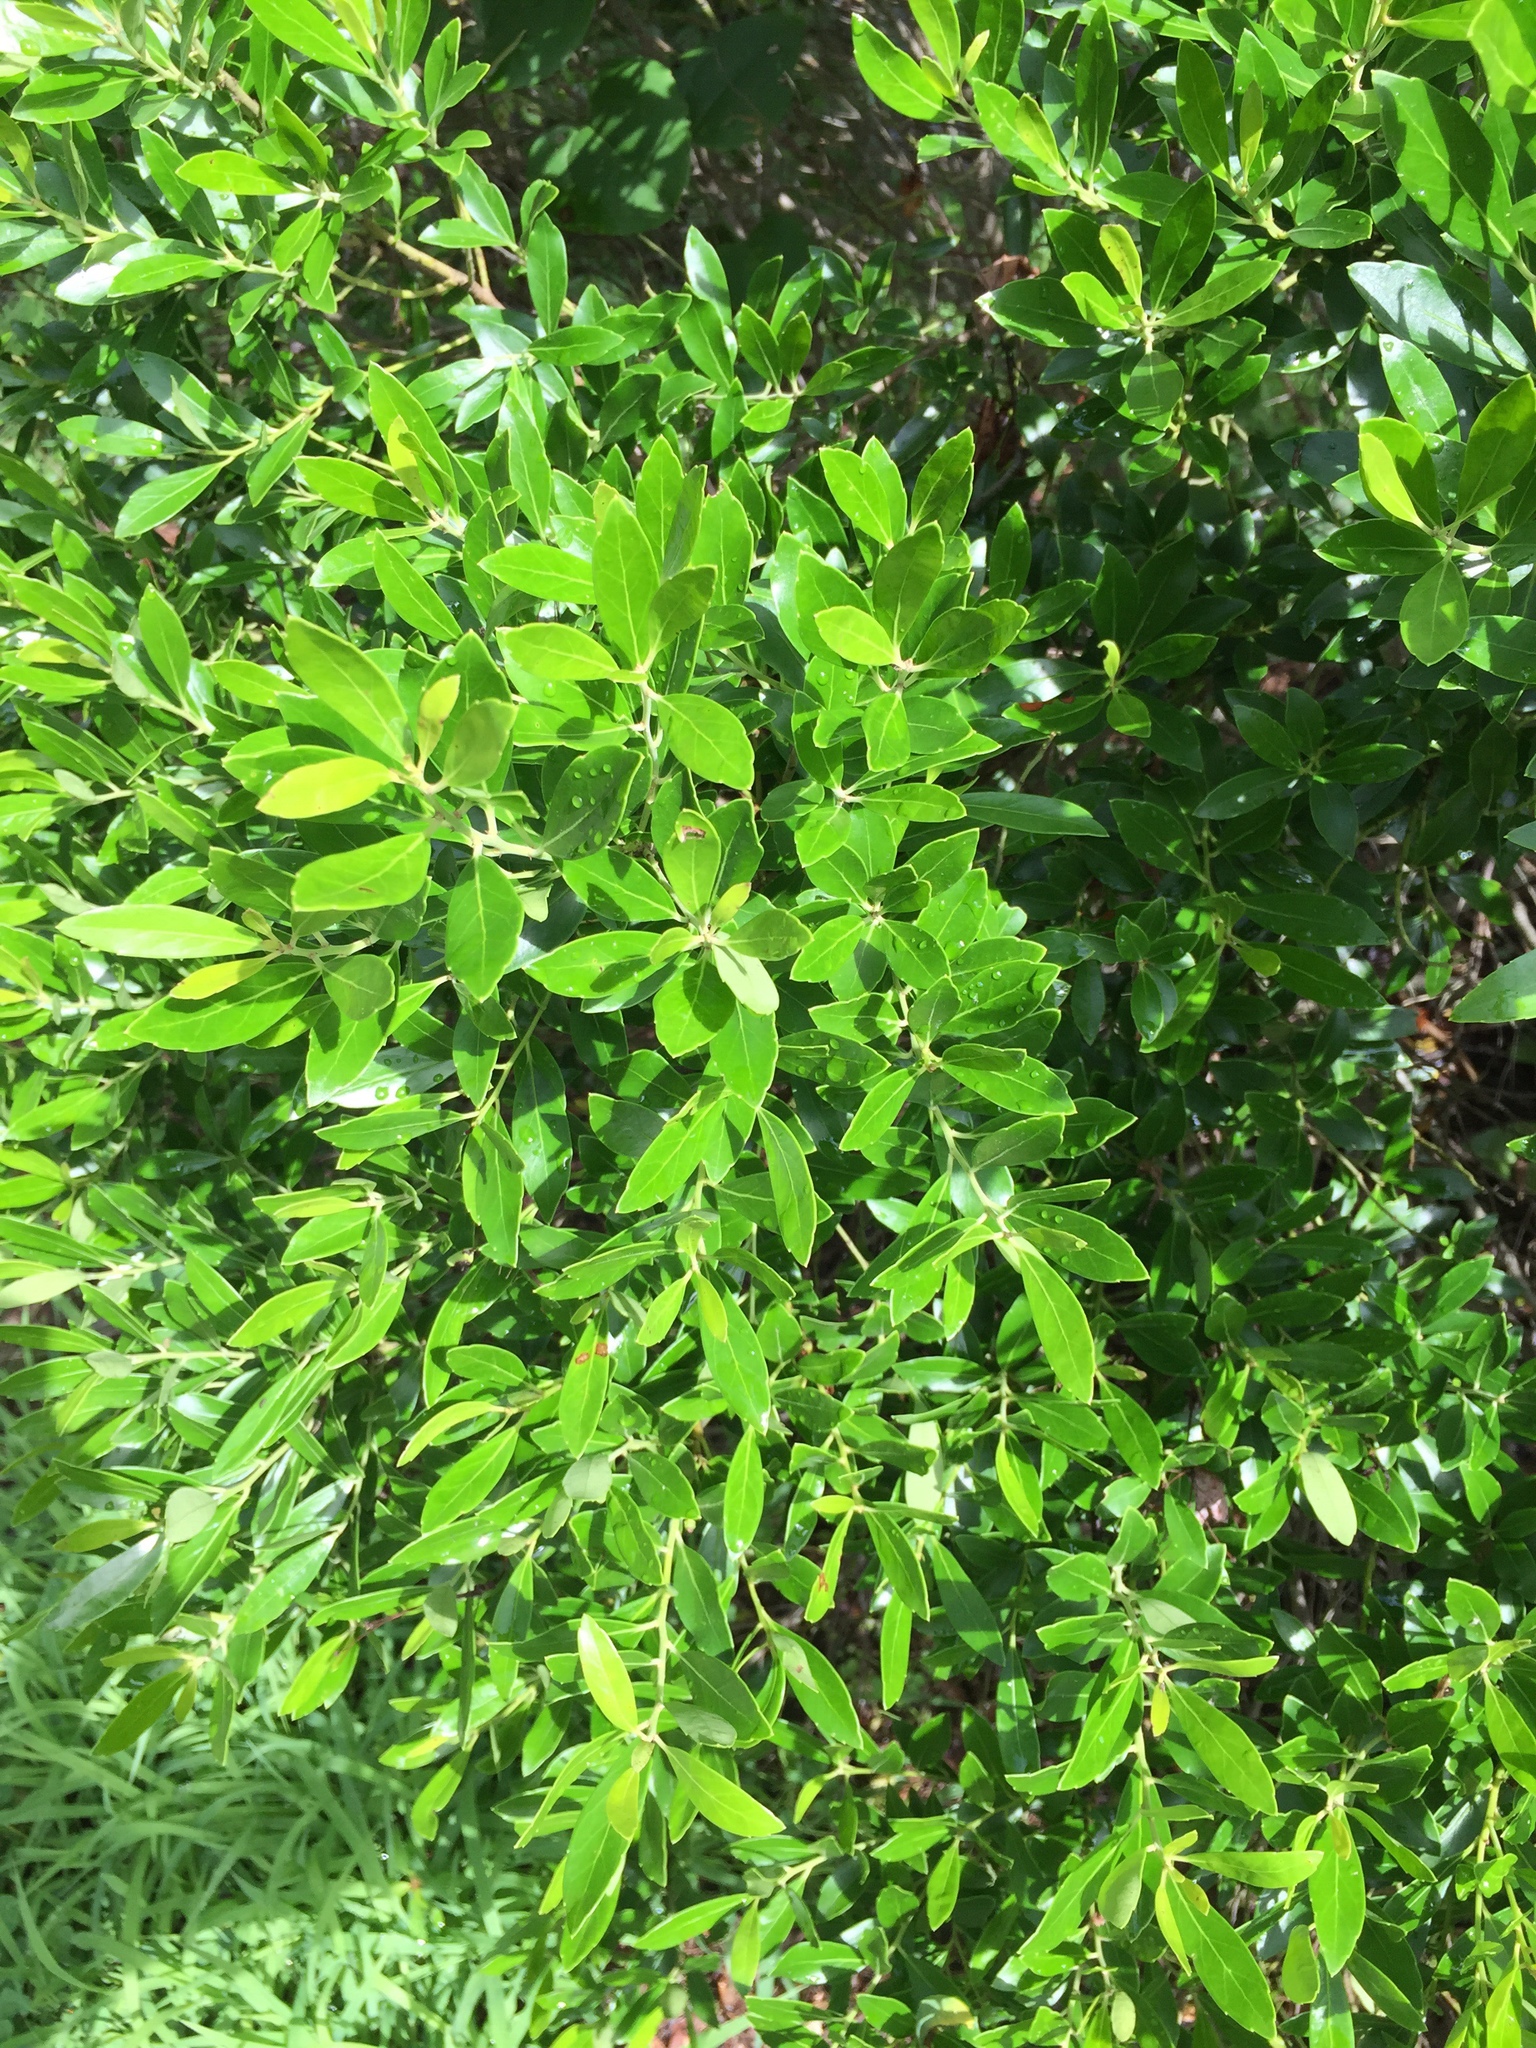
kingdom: Plantae
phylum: Tracheophyta
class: Magnoliopsida
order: Aquifoliales
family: Aquifoliaceae
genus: Ilex
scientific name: Ilex glabra
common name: Bitter gallberry
